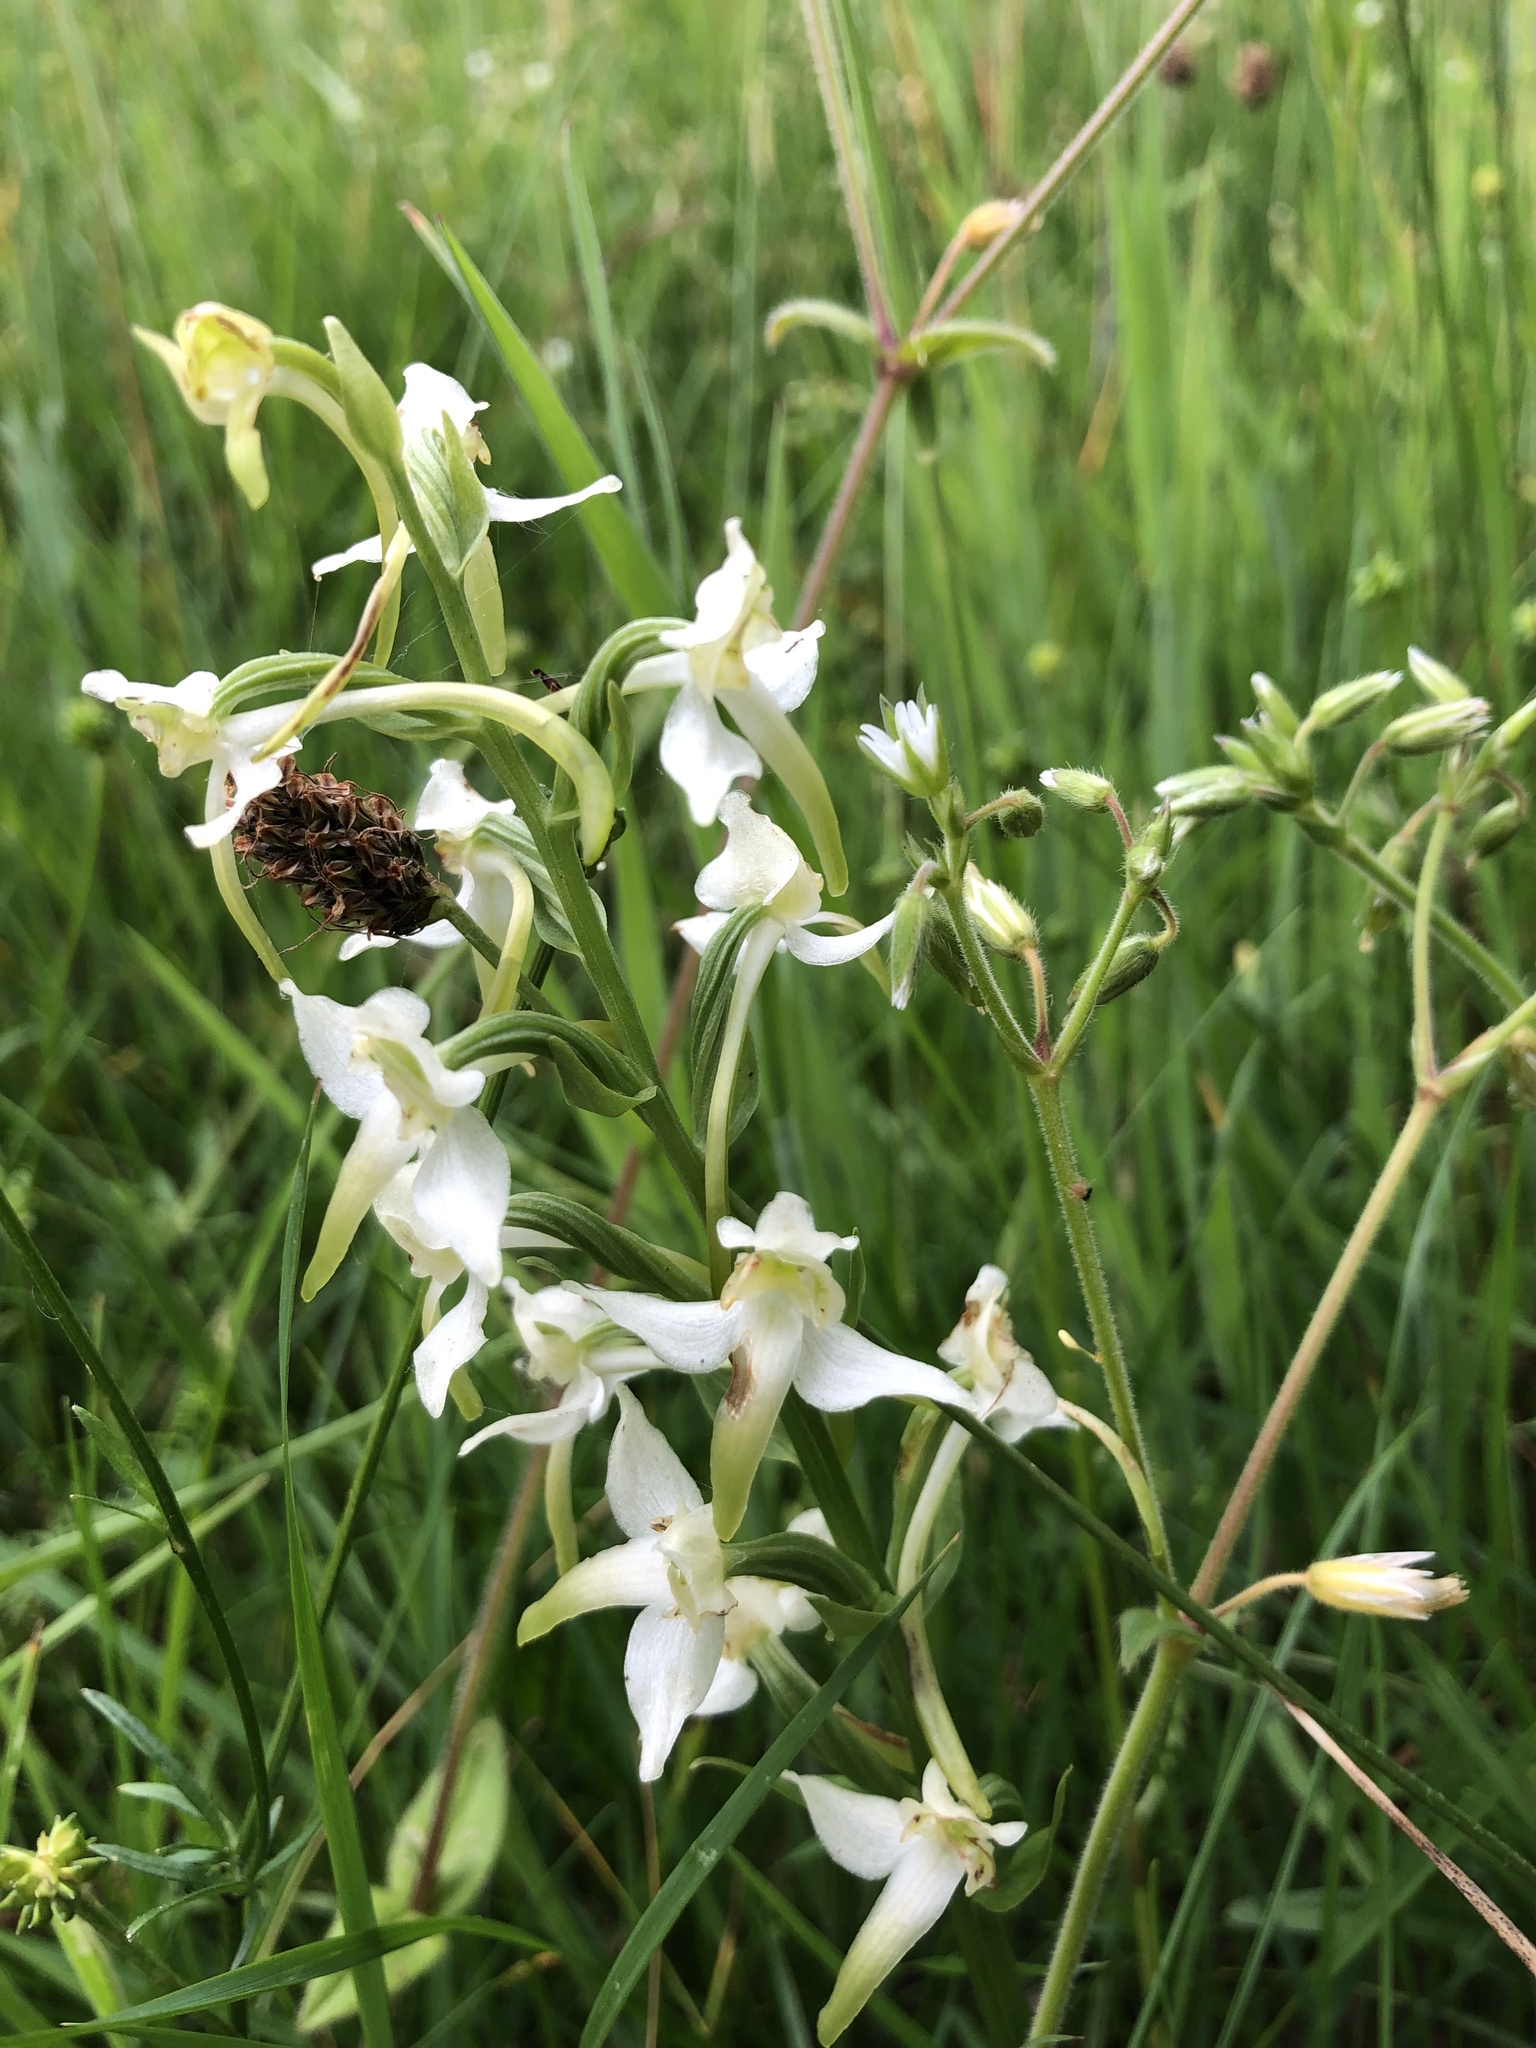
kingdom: Plantae
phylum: Tracheophyta
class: Liliopsida
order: Asparagales
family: Orchidaceae
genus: Platanthera
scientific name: Platanthera chlorantha
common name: Greater butterfly-orchid
